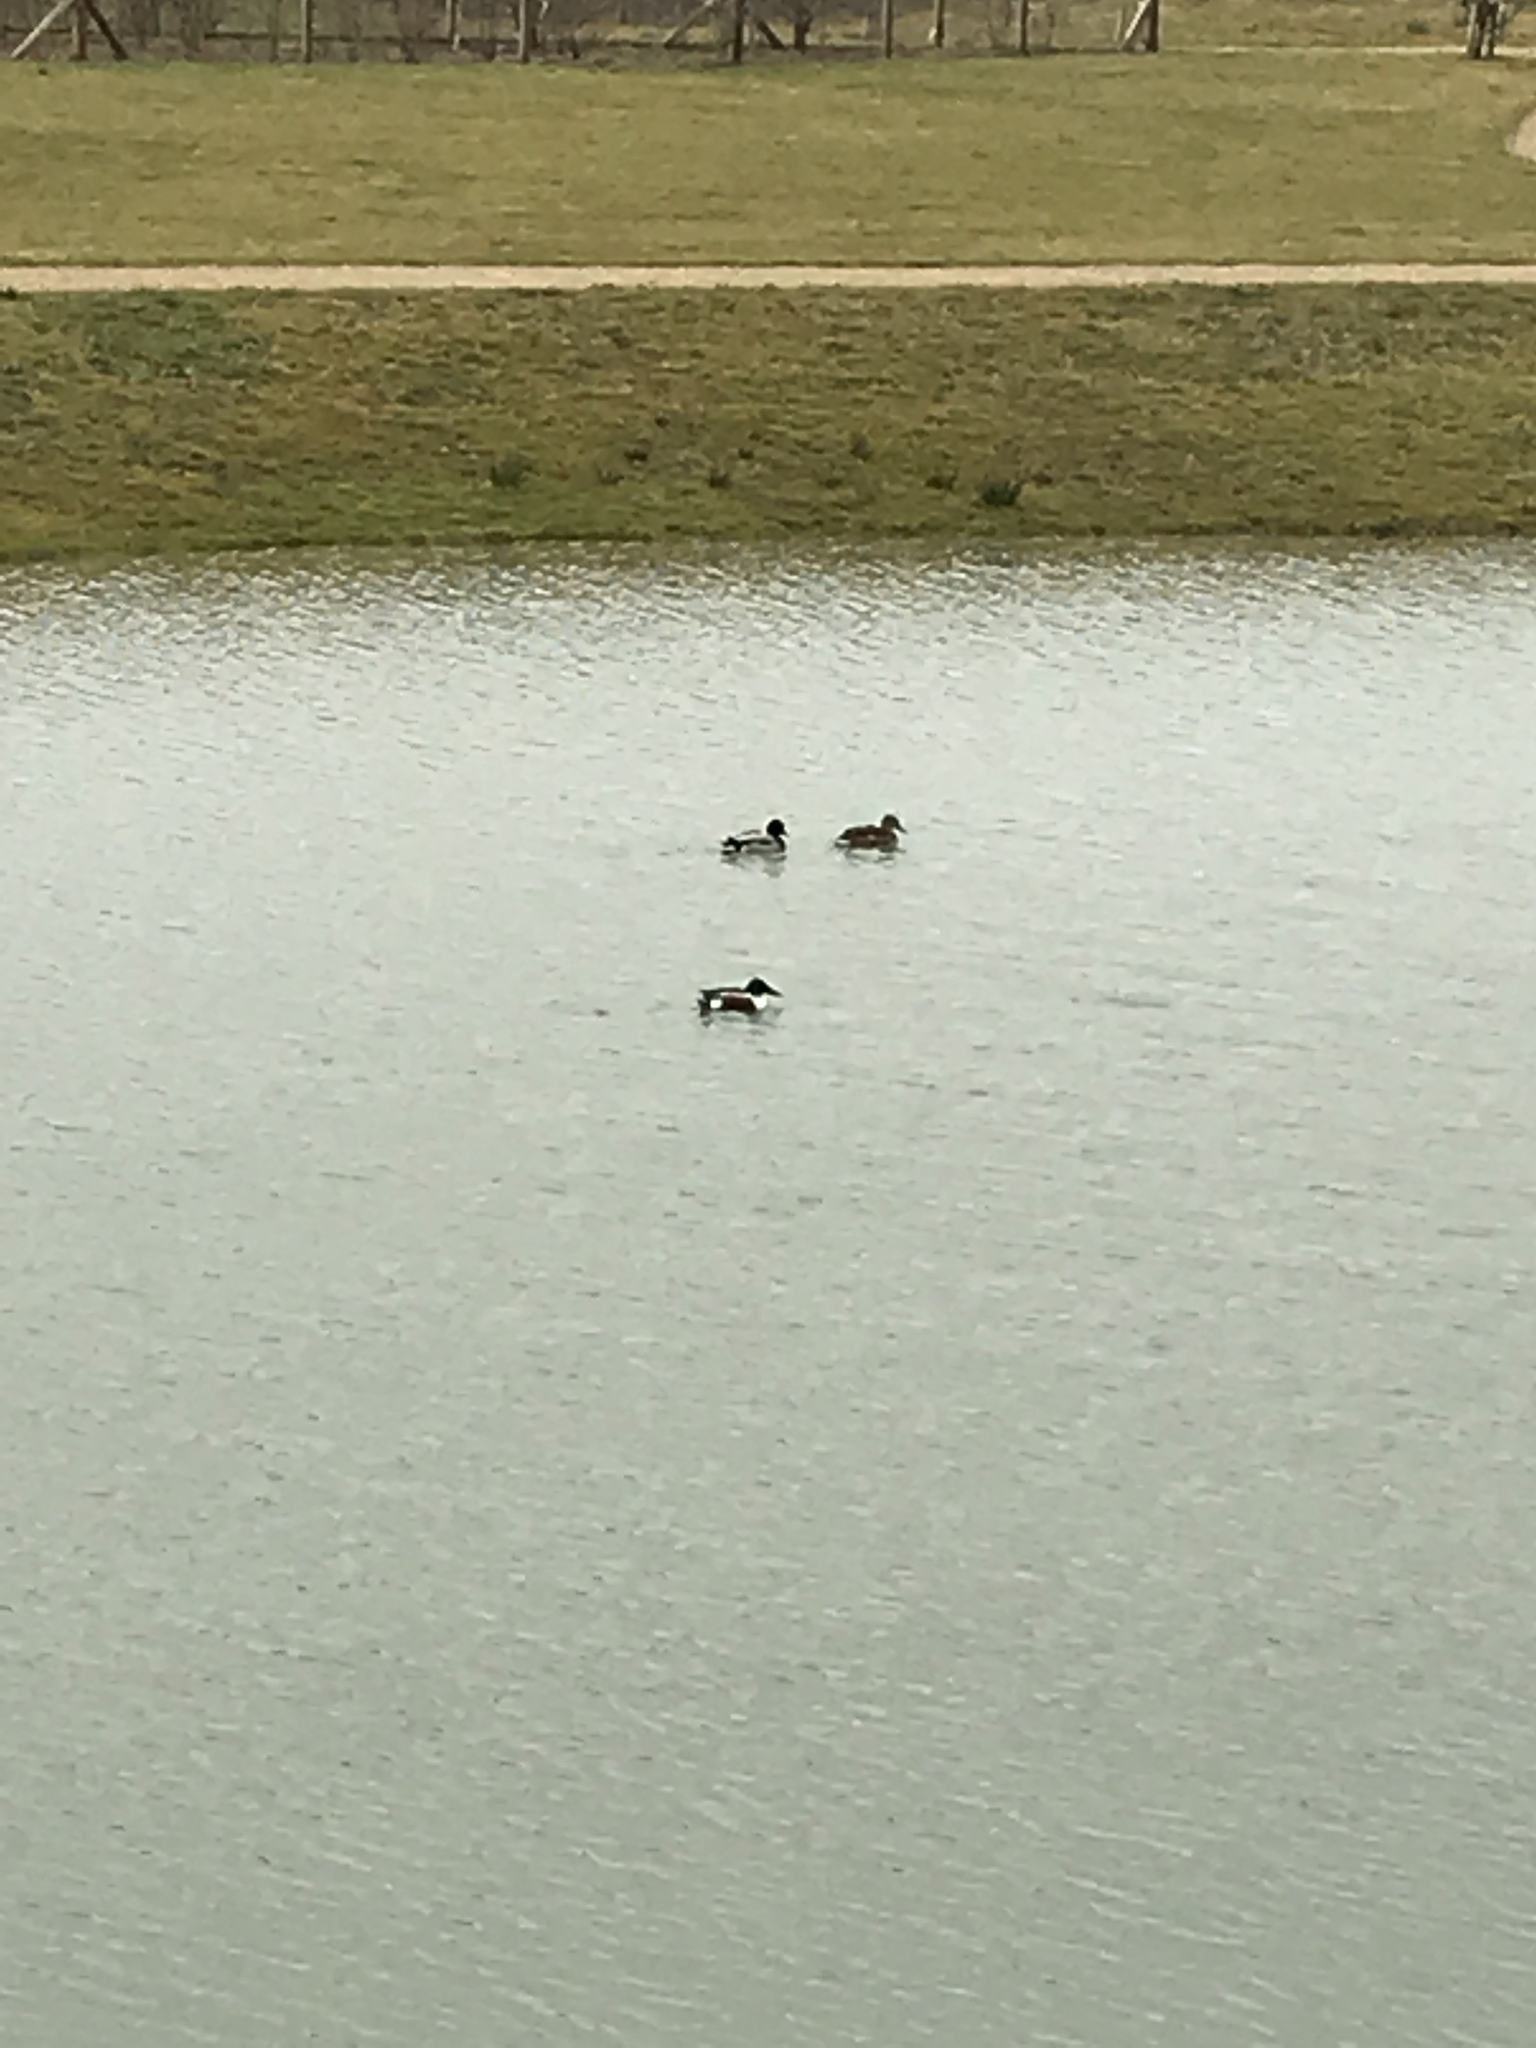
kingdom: Animalia
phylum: Chordata
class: Aves
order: Anseriformes
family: Anatidae
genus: Spatula
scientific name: Spatula clypeata
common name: Northern shoveler
